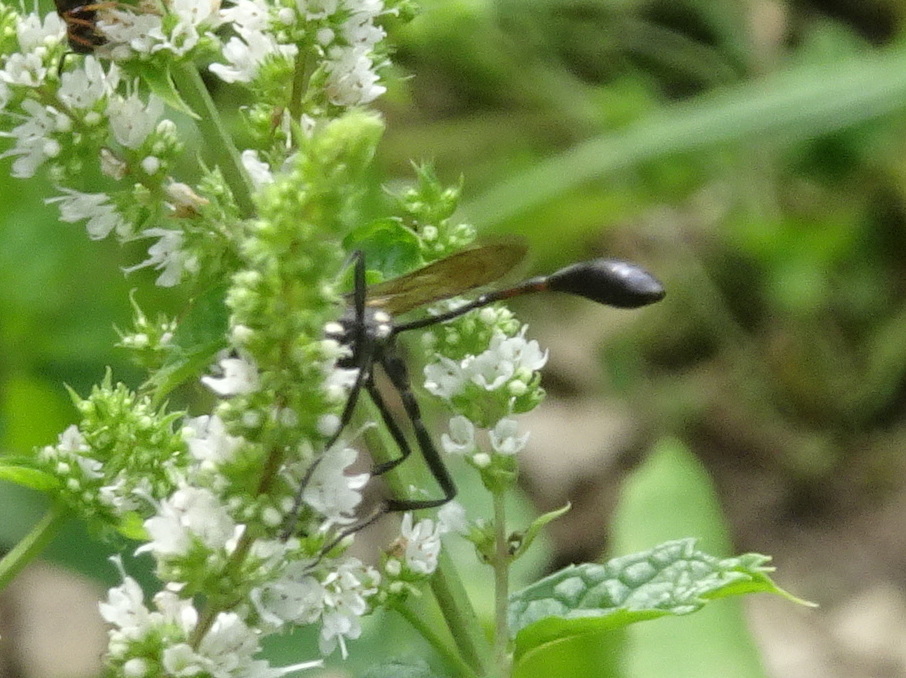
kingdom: Animalia
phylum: Arthropoda
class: Insecta
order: Hymenoptera
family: Sphecidae
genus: Eremnophila
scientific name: Eremnophila aureonotata
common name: Gold-marked thread-waisted wasp
